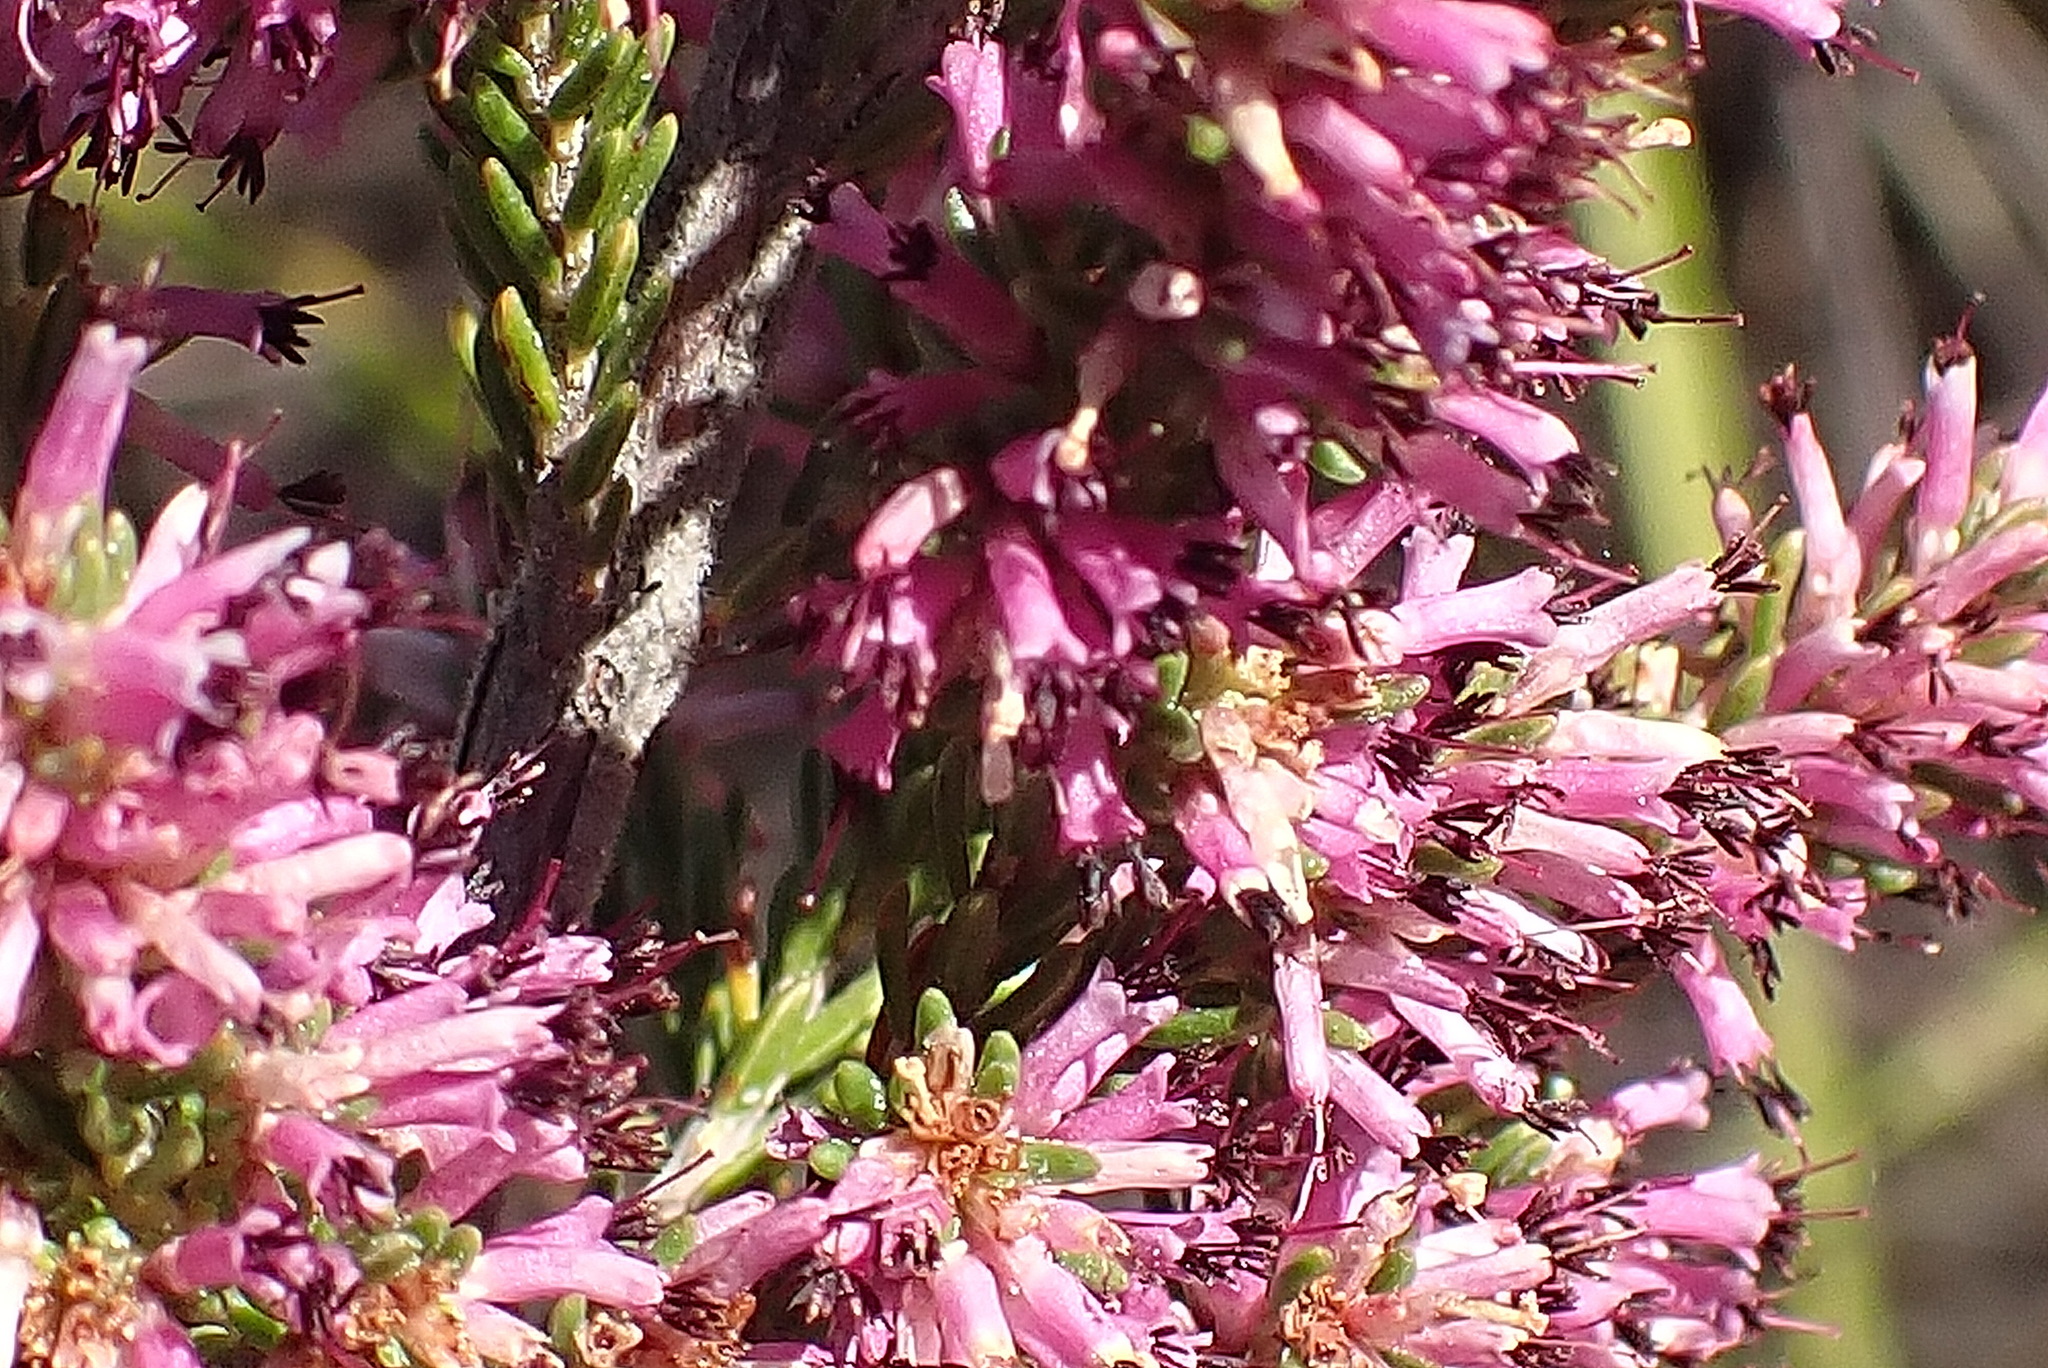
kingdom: Plantae
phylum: Tracheophyta
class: Magnoliopsida
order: Ericales
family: Ericaceae
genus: Erica
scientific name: Erica uberiflora
